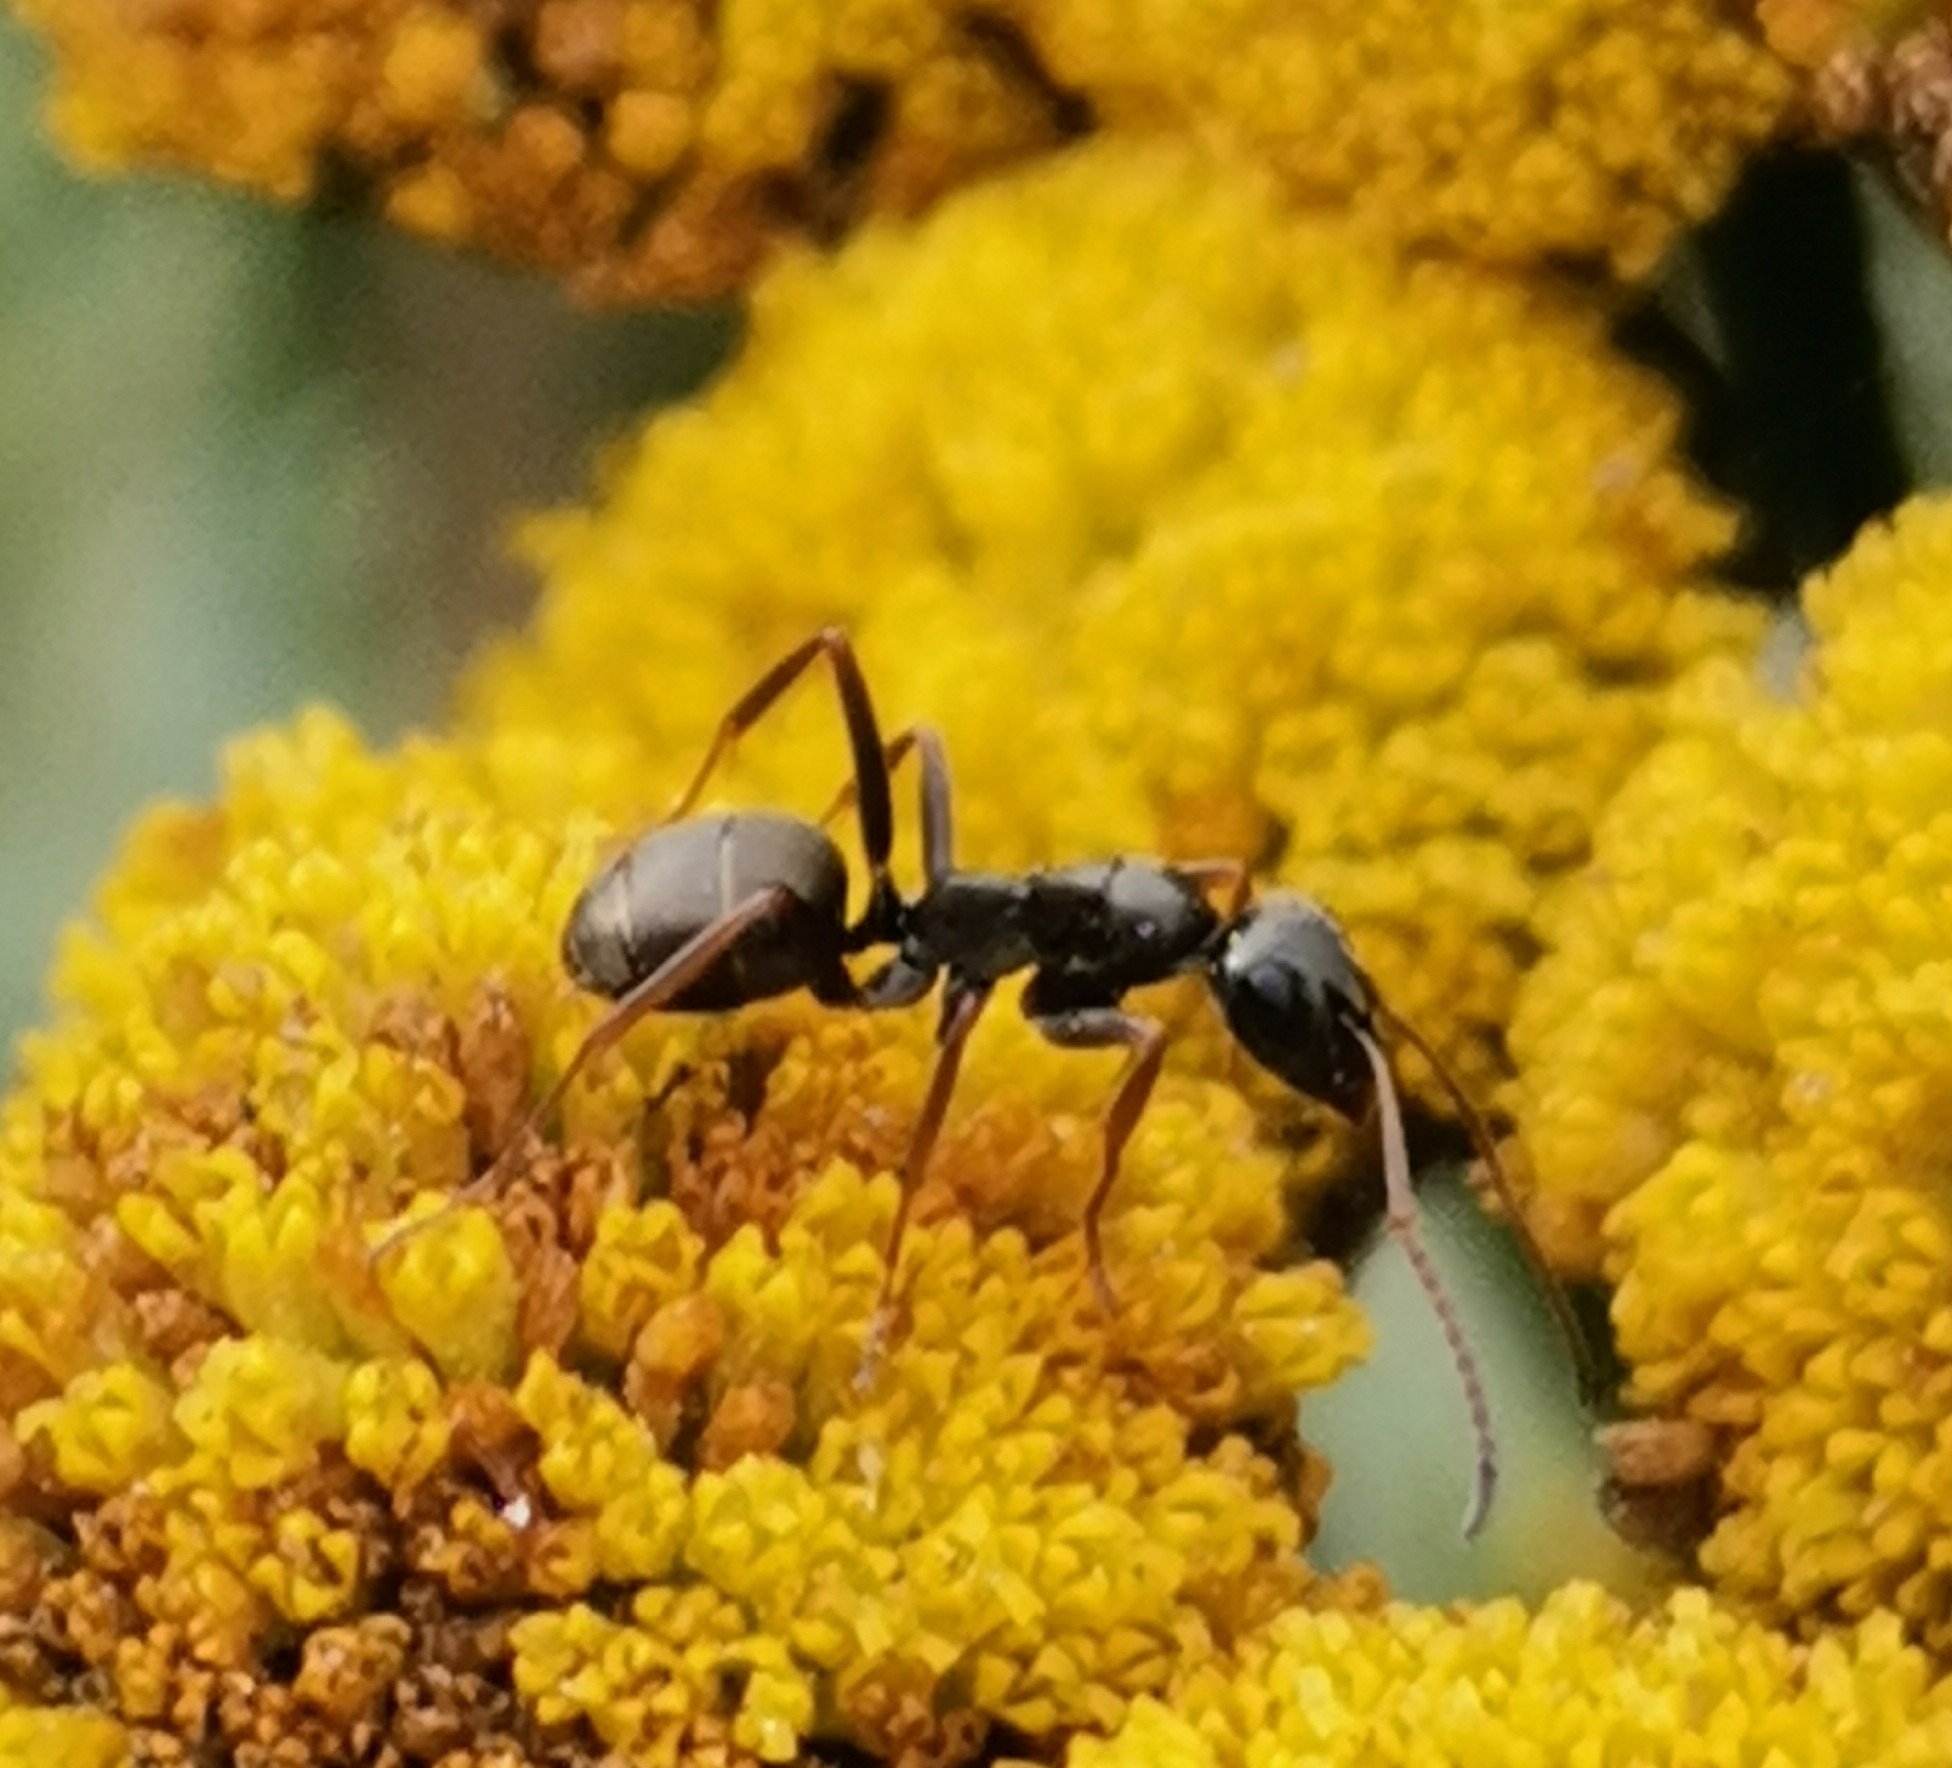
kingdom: Animalia
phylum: Arthropoda
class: Insecta
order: Hymenoptera
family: Formicidae
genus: Formica
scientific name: Formica fusca
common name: Silky ant
